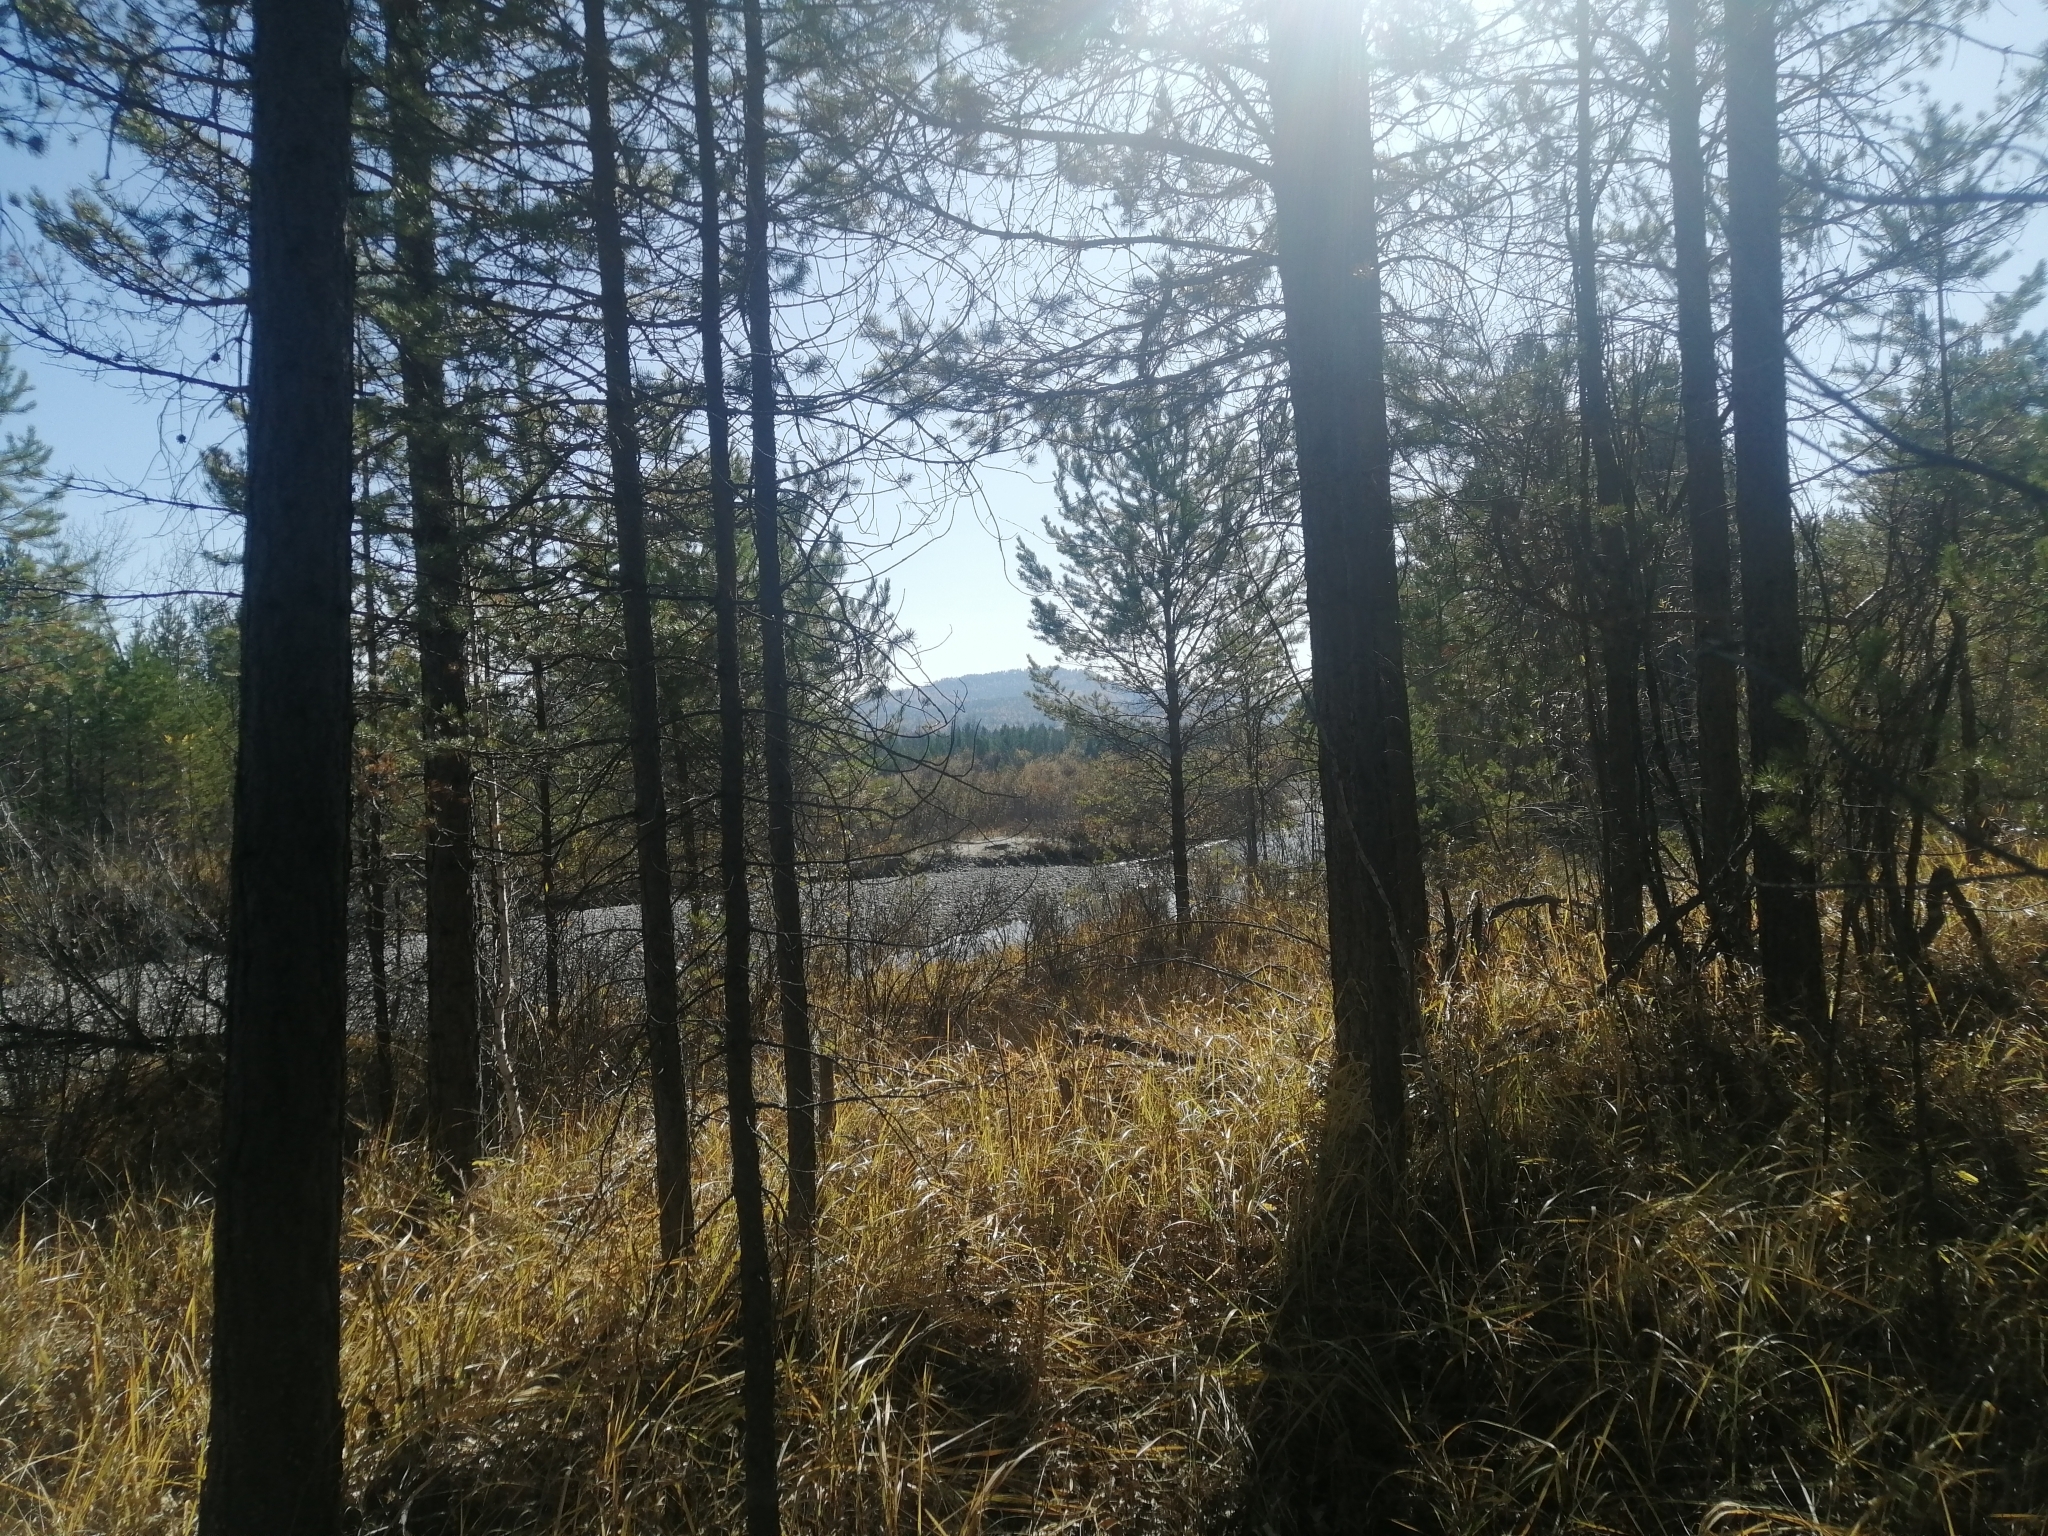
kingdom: Plantae
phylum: Tracheophyta
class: Pinopsida
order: Pinales
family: Pinaceae
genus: Pinus
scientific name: Pinus sylvestris
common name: Scots pine
